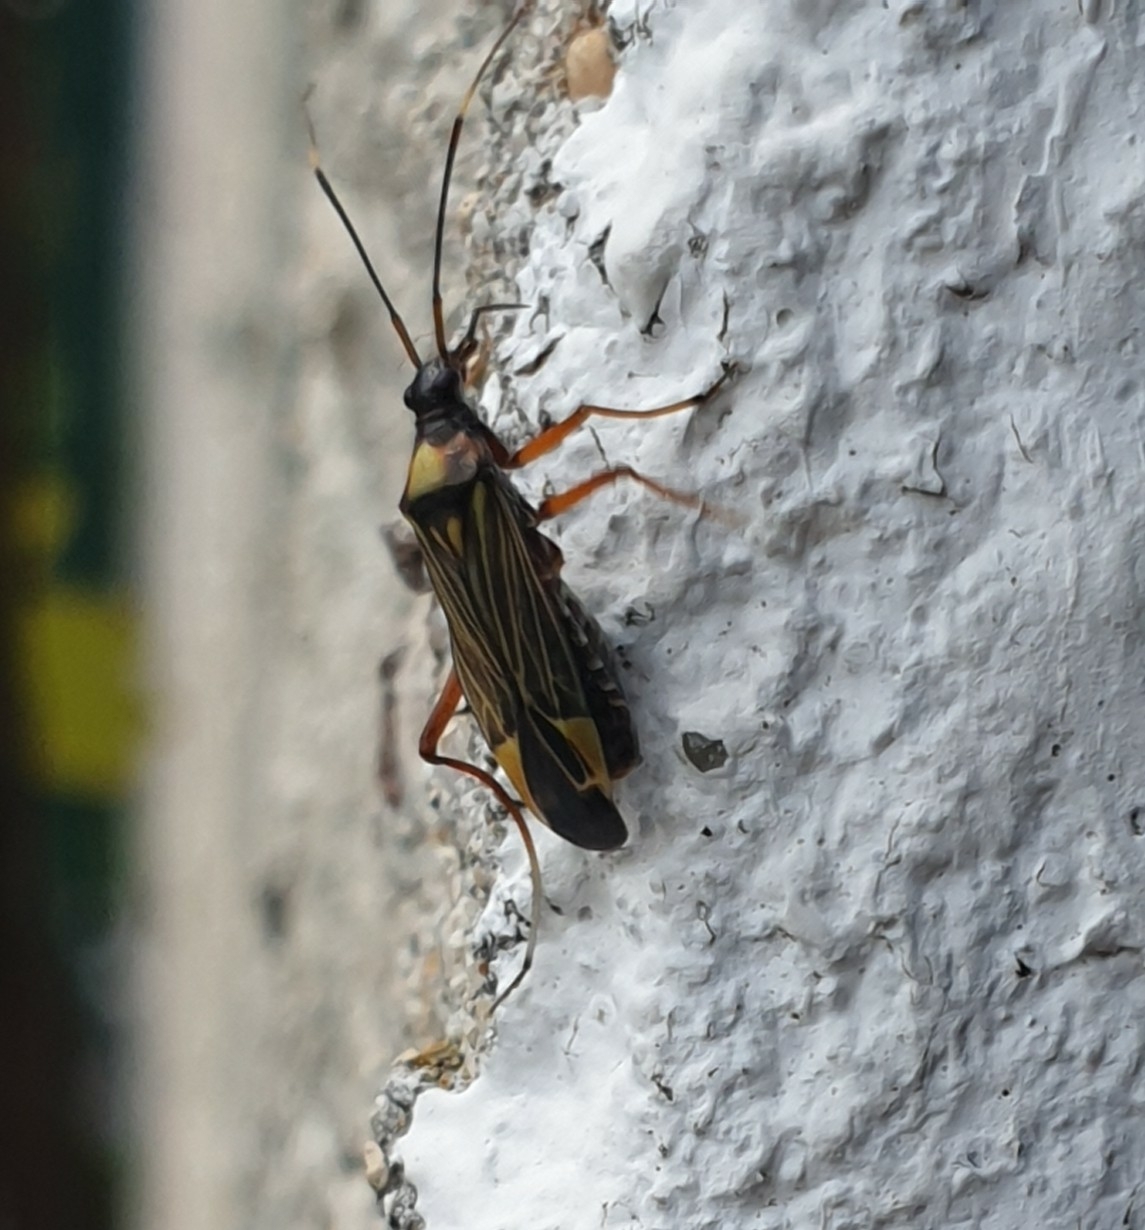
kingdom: Animalia
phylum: Arthropoda
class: Insecta
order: Hemiptera
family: Miridae
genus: Miris
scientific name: Miris striatus
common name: Fine streaked bugkin
